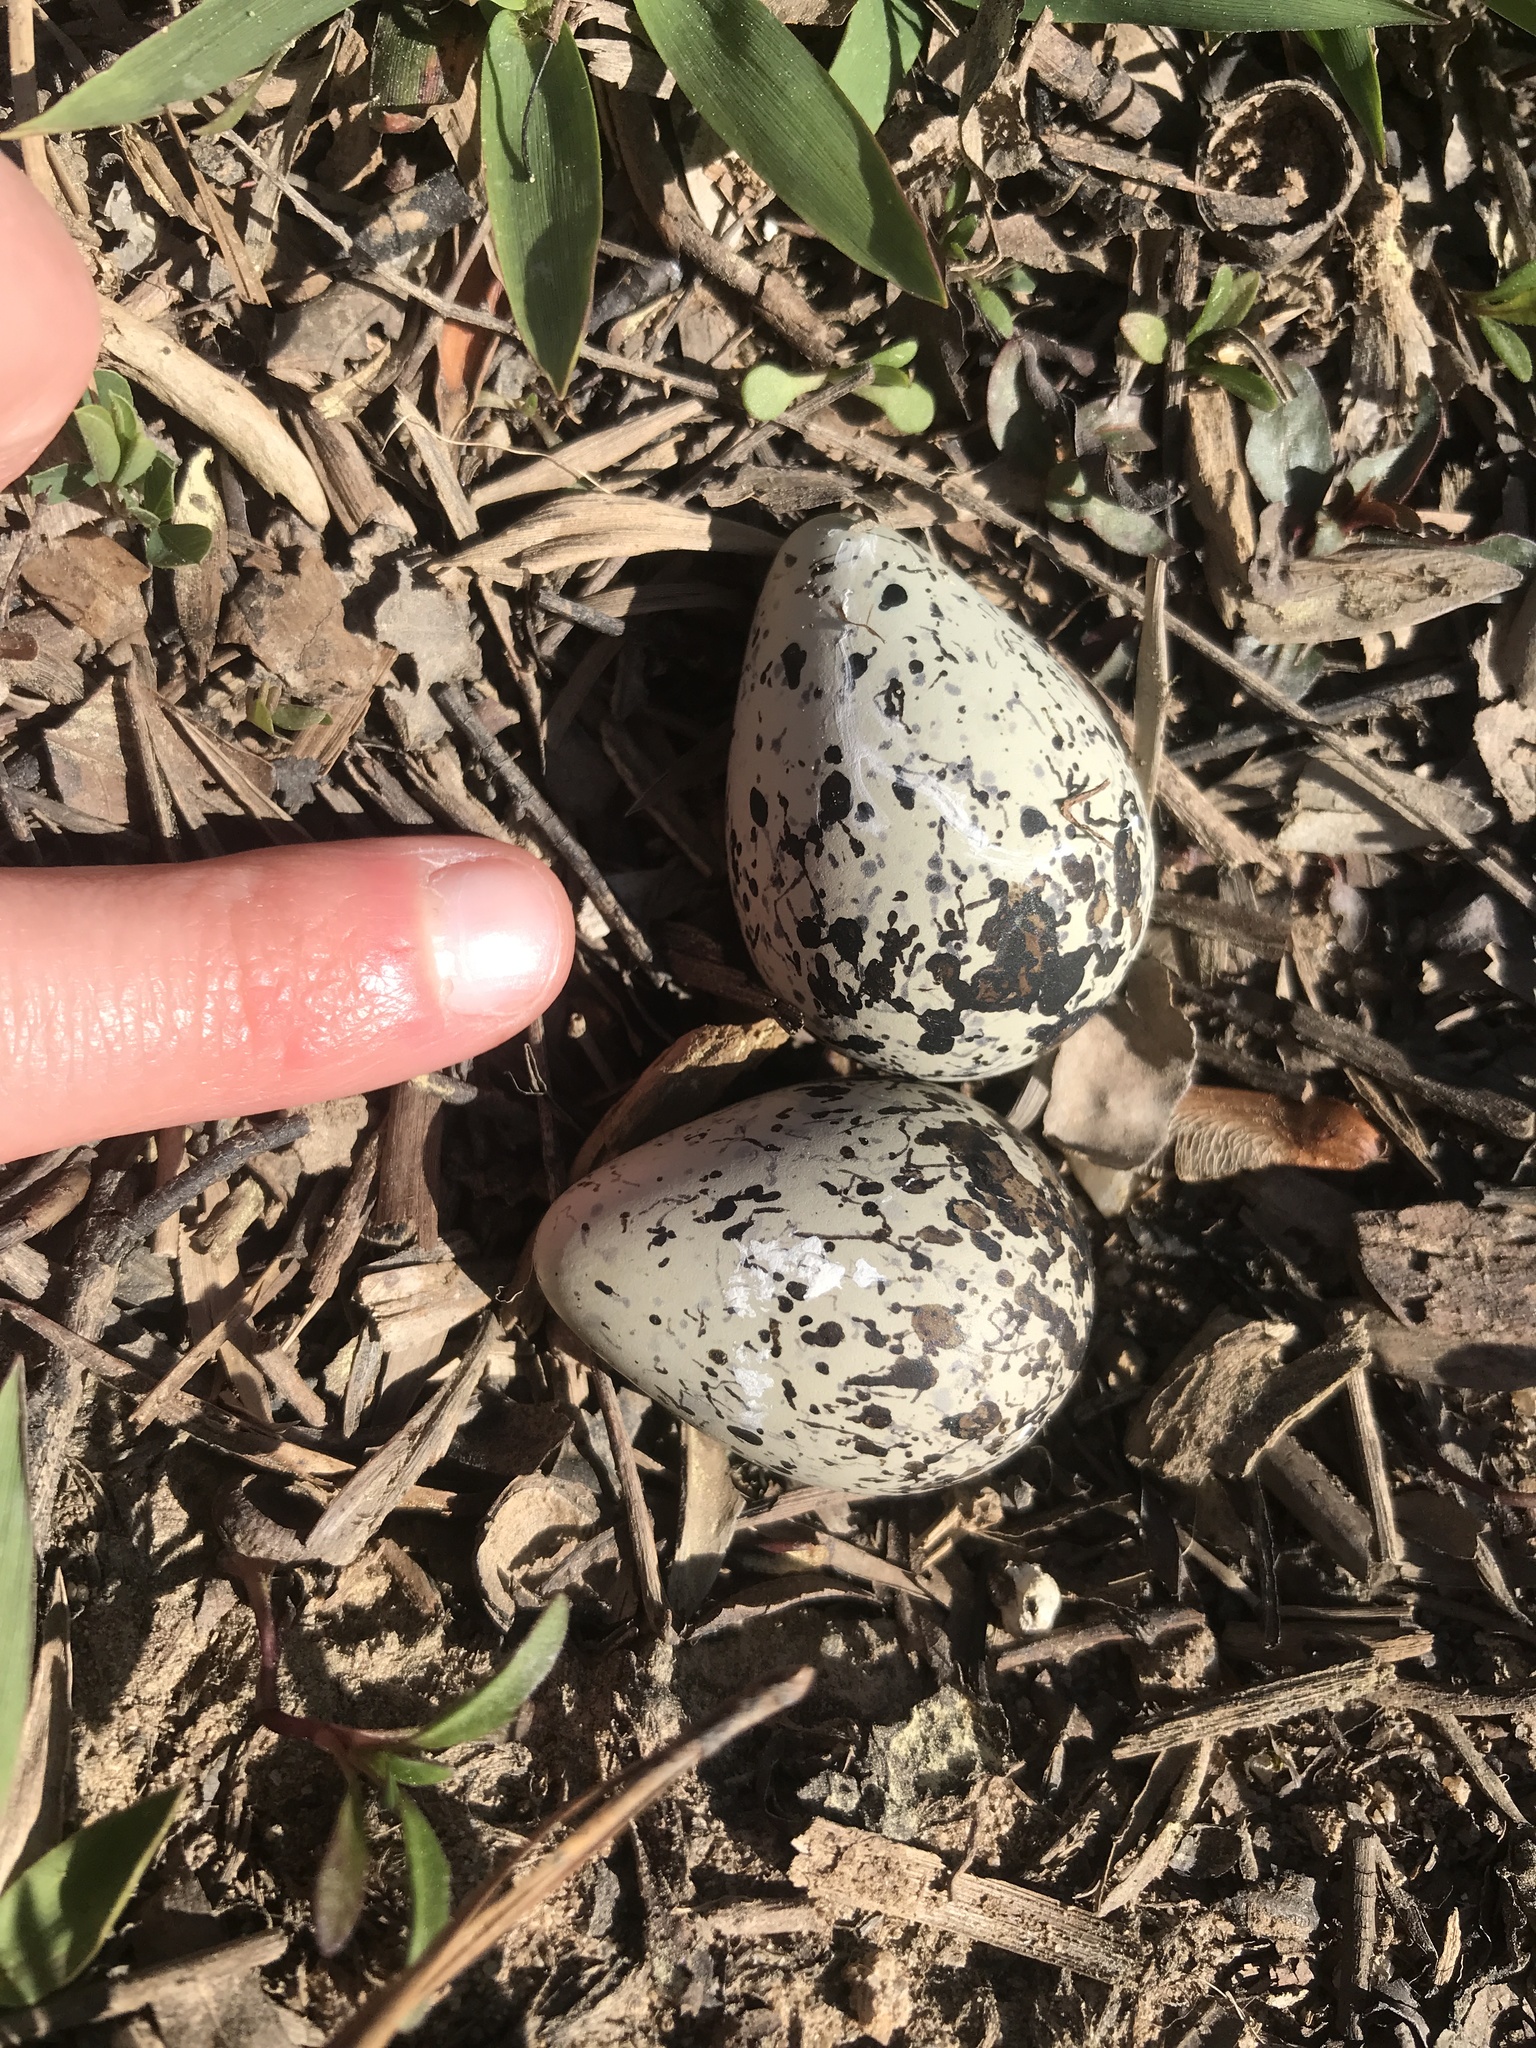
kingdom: Animalia
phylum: Chordata
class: Aves
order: Charadriiformes
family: Charadriidae
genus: Charadrius
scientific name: Charadrius vociferus
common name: Killdeer
